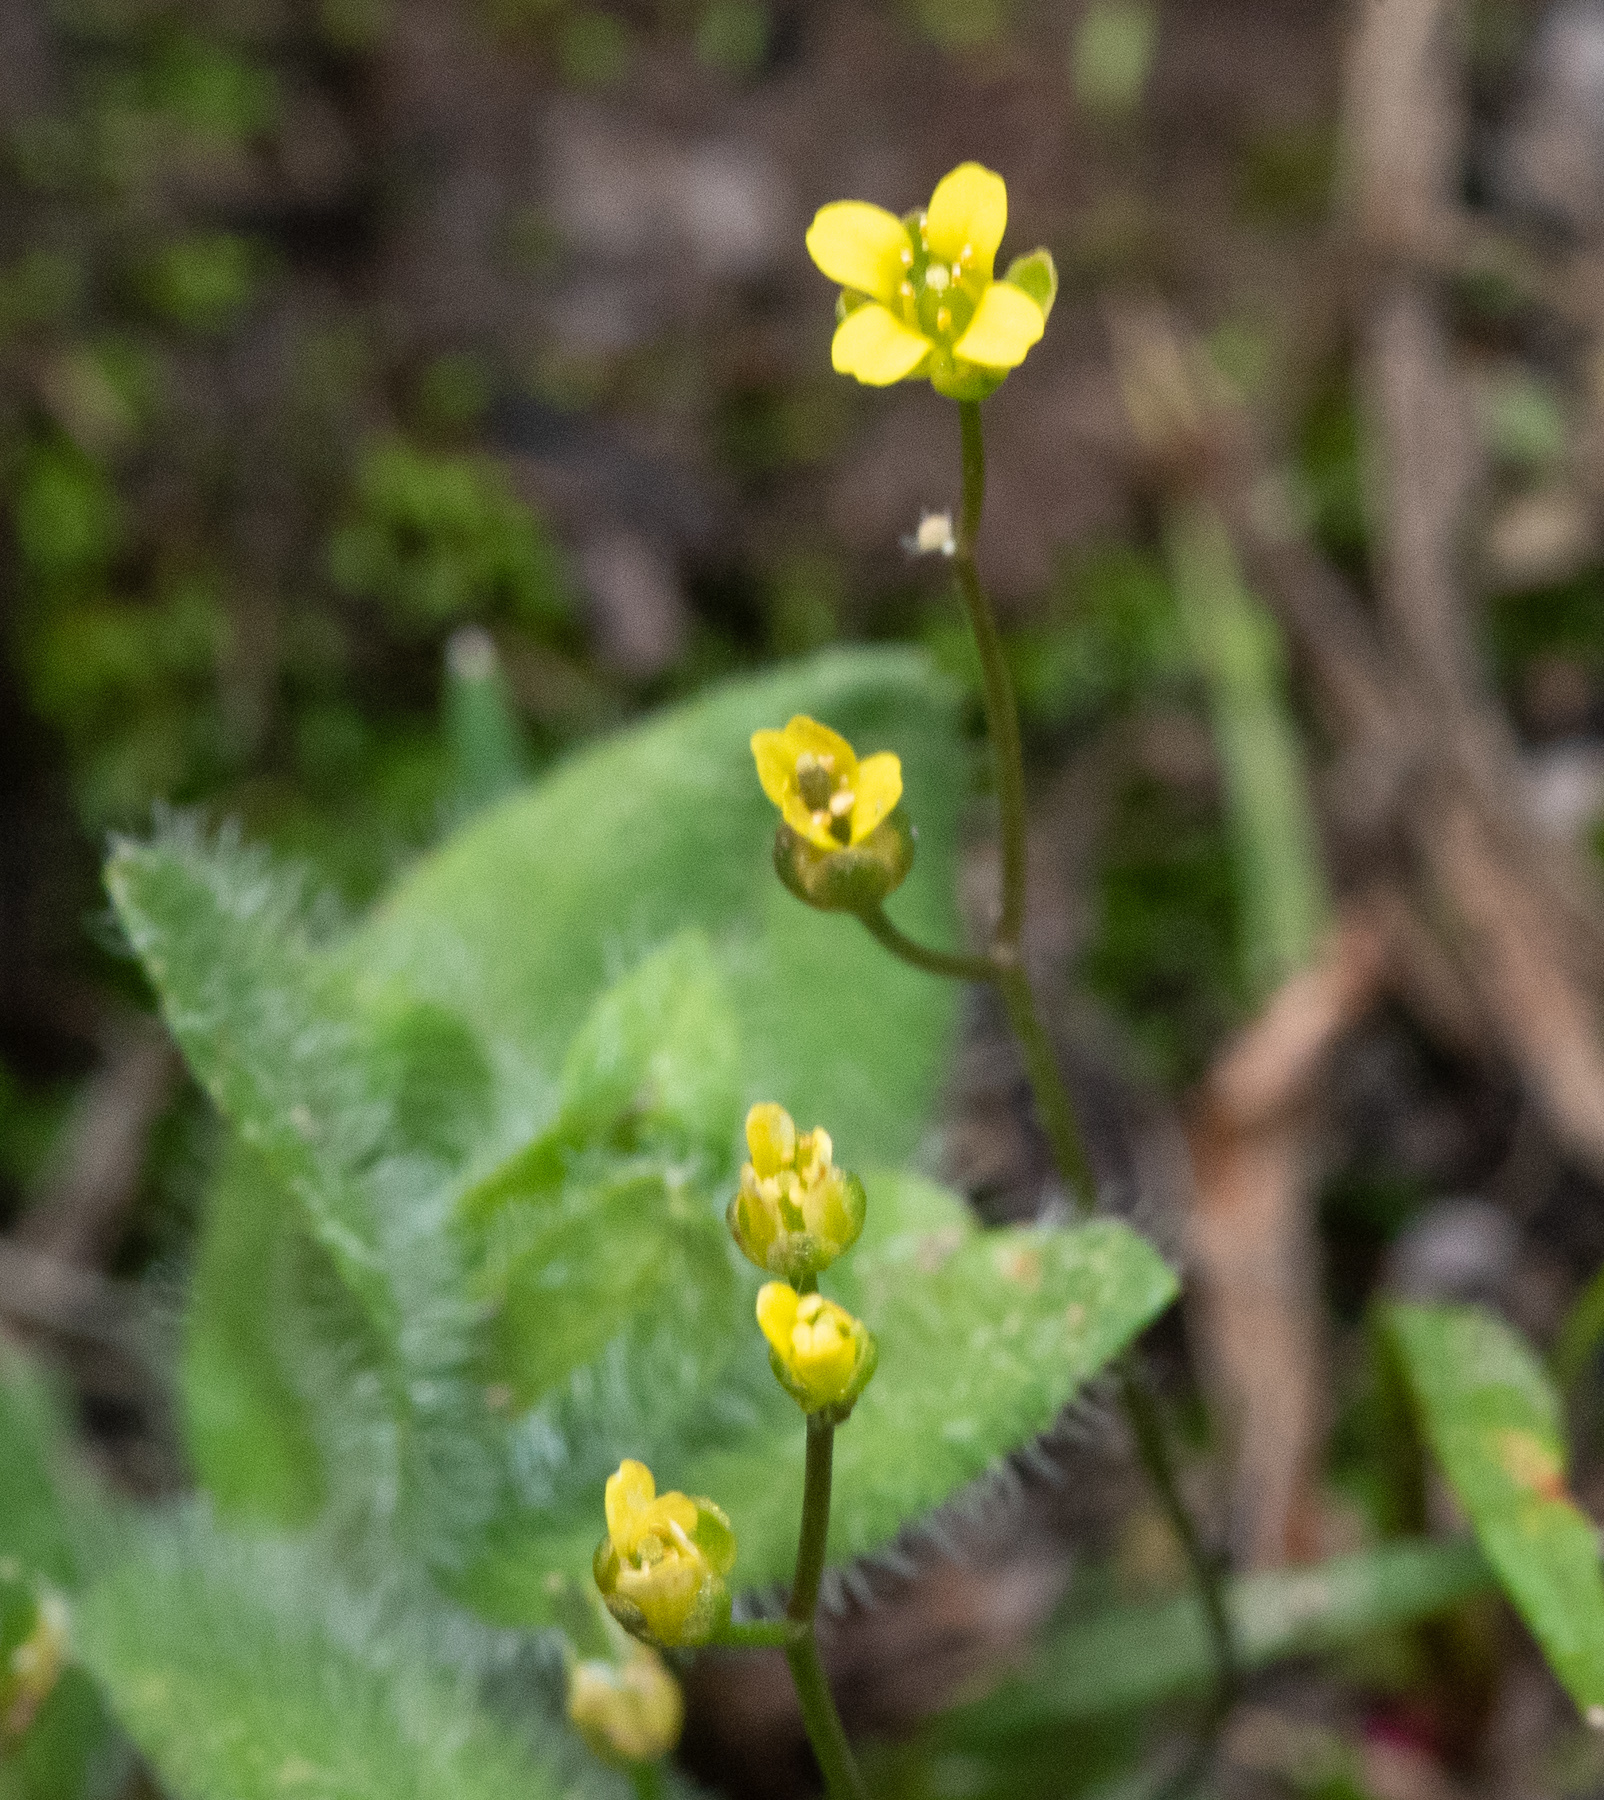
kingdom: Plantae
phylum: Tracheophyta
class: Magnoliopsida
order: Brassicales
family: Brassicaceae
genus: Draba
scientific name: Draba albertina
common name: Slender draba
